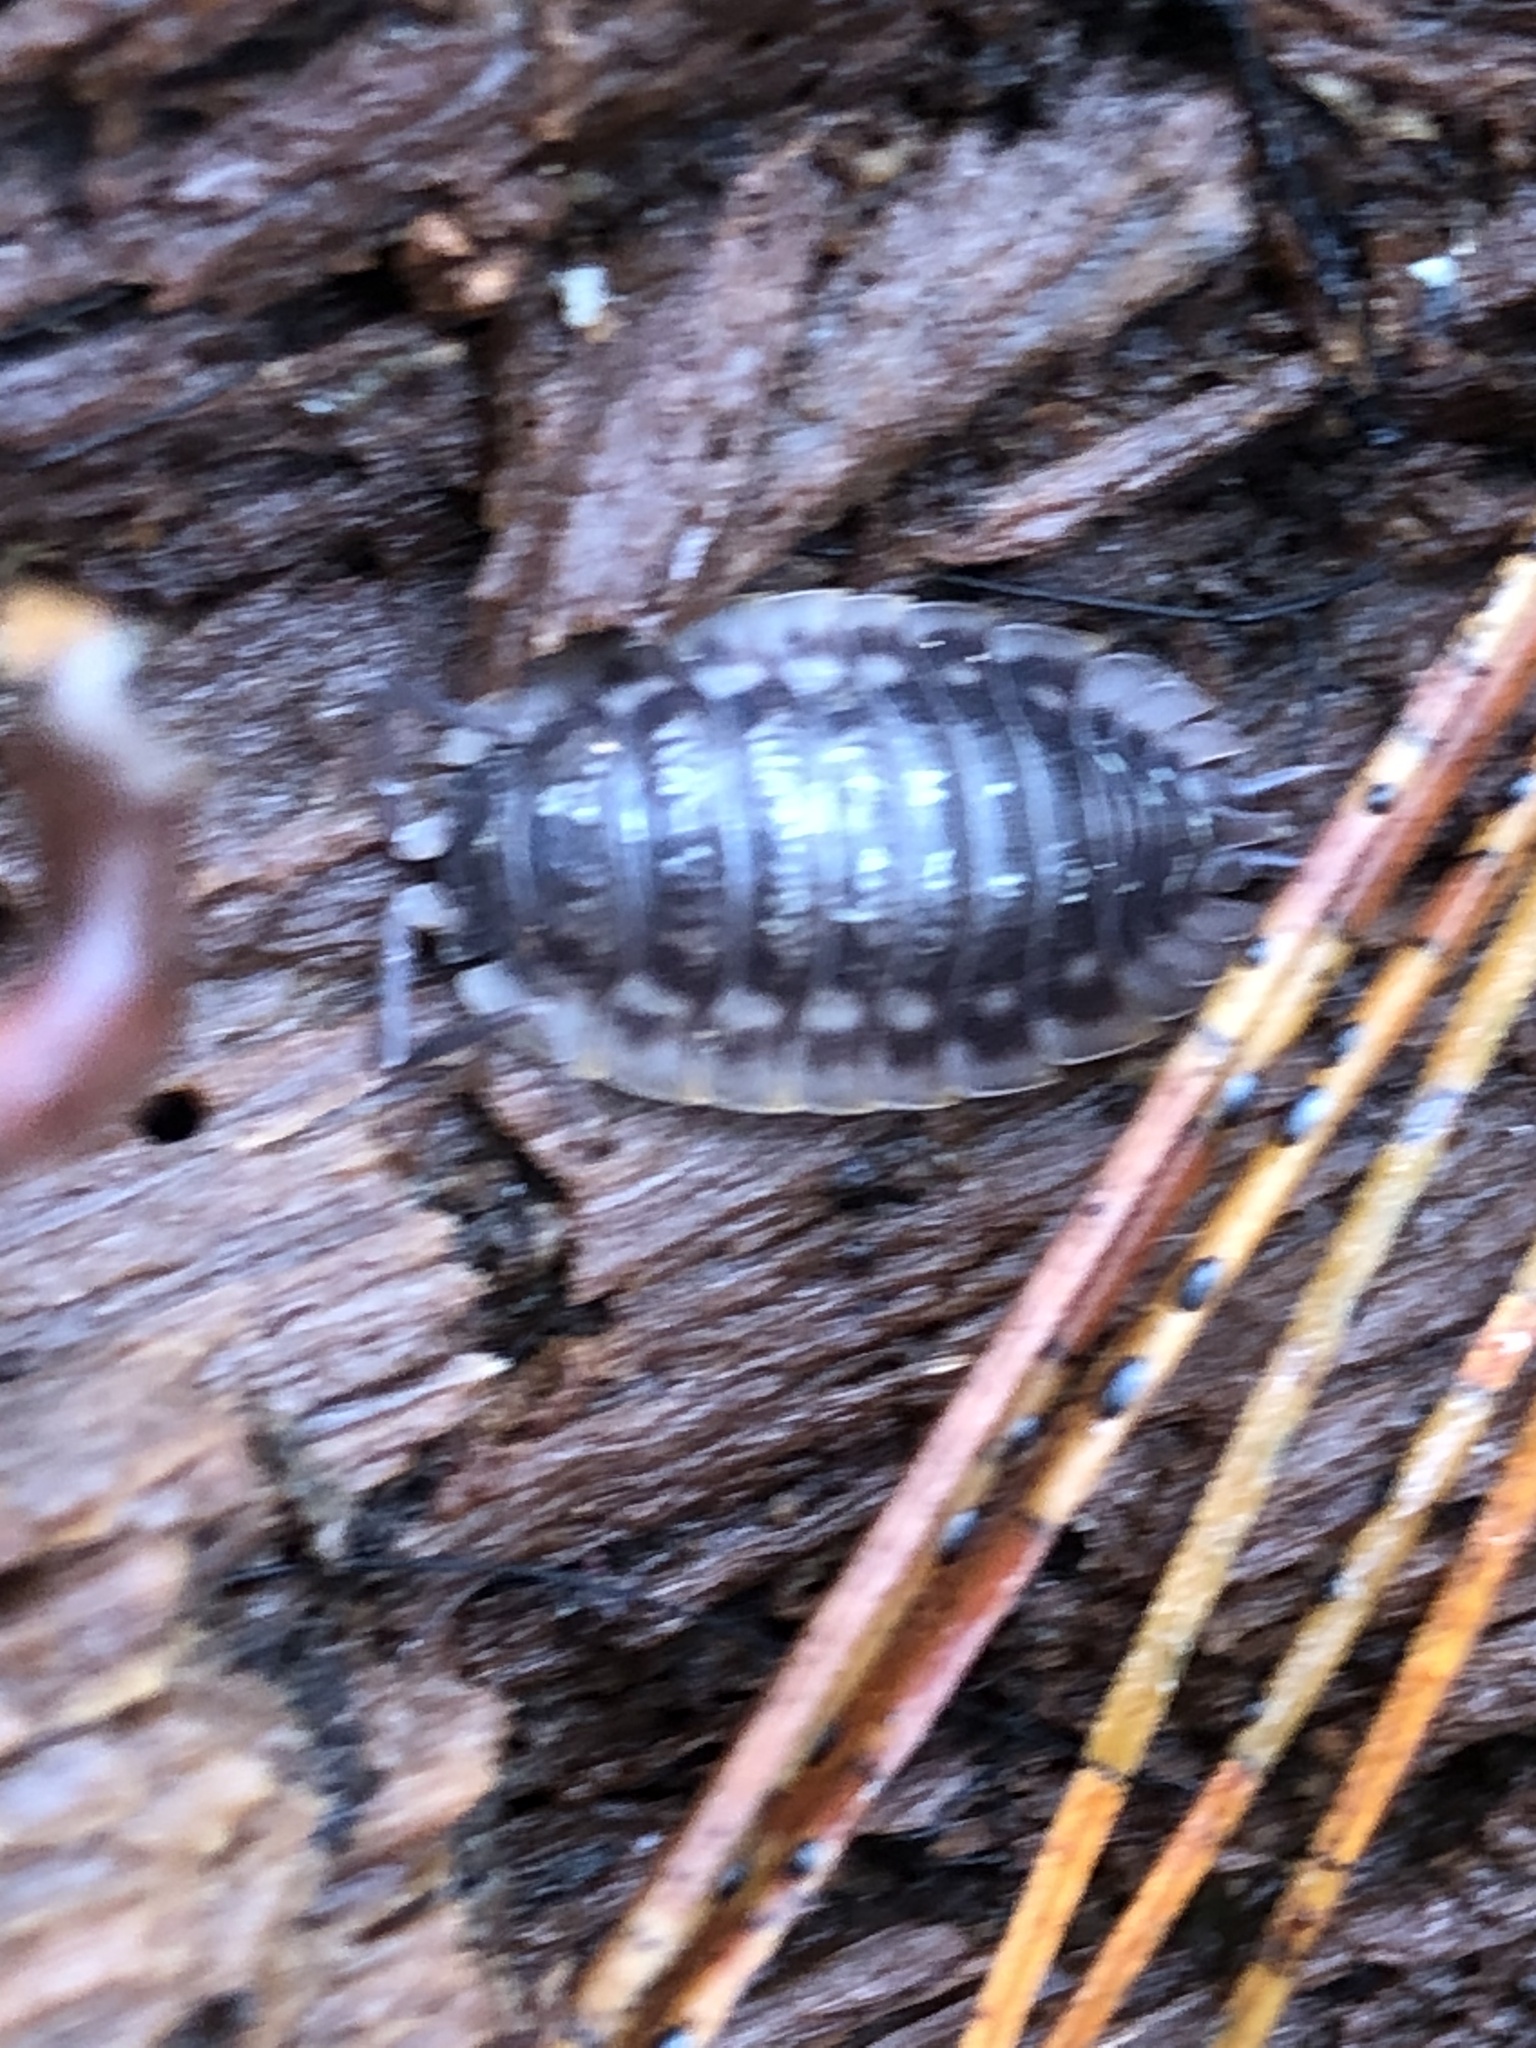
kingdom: Animalia
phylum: Arthropoda
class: Malacostraca
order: Isopoda
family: Oniscidae
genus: Oniscus
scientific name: Oniscus asellus
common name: Common shiny woodlouse
